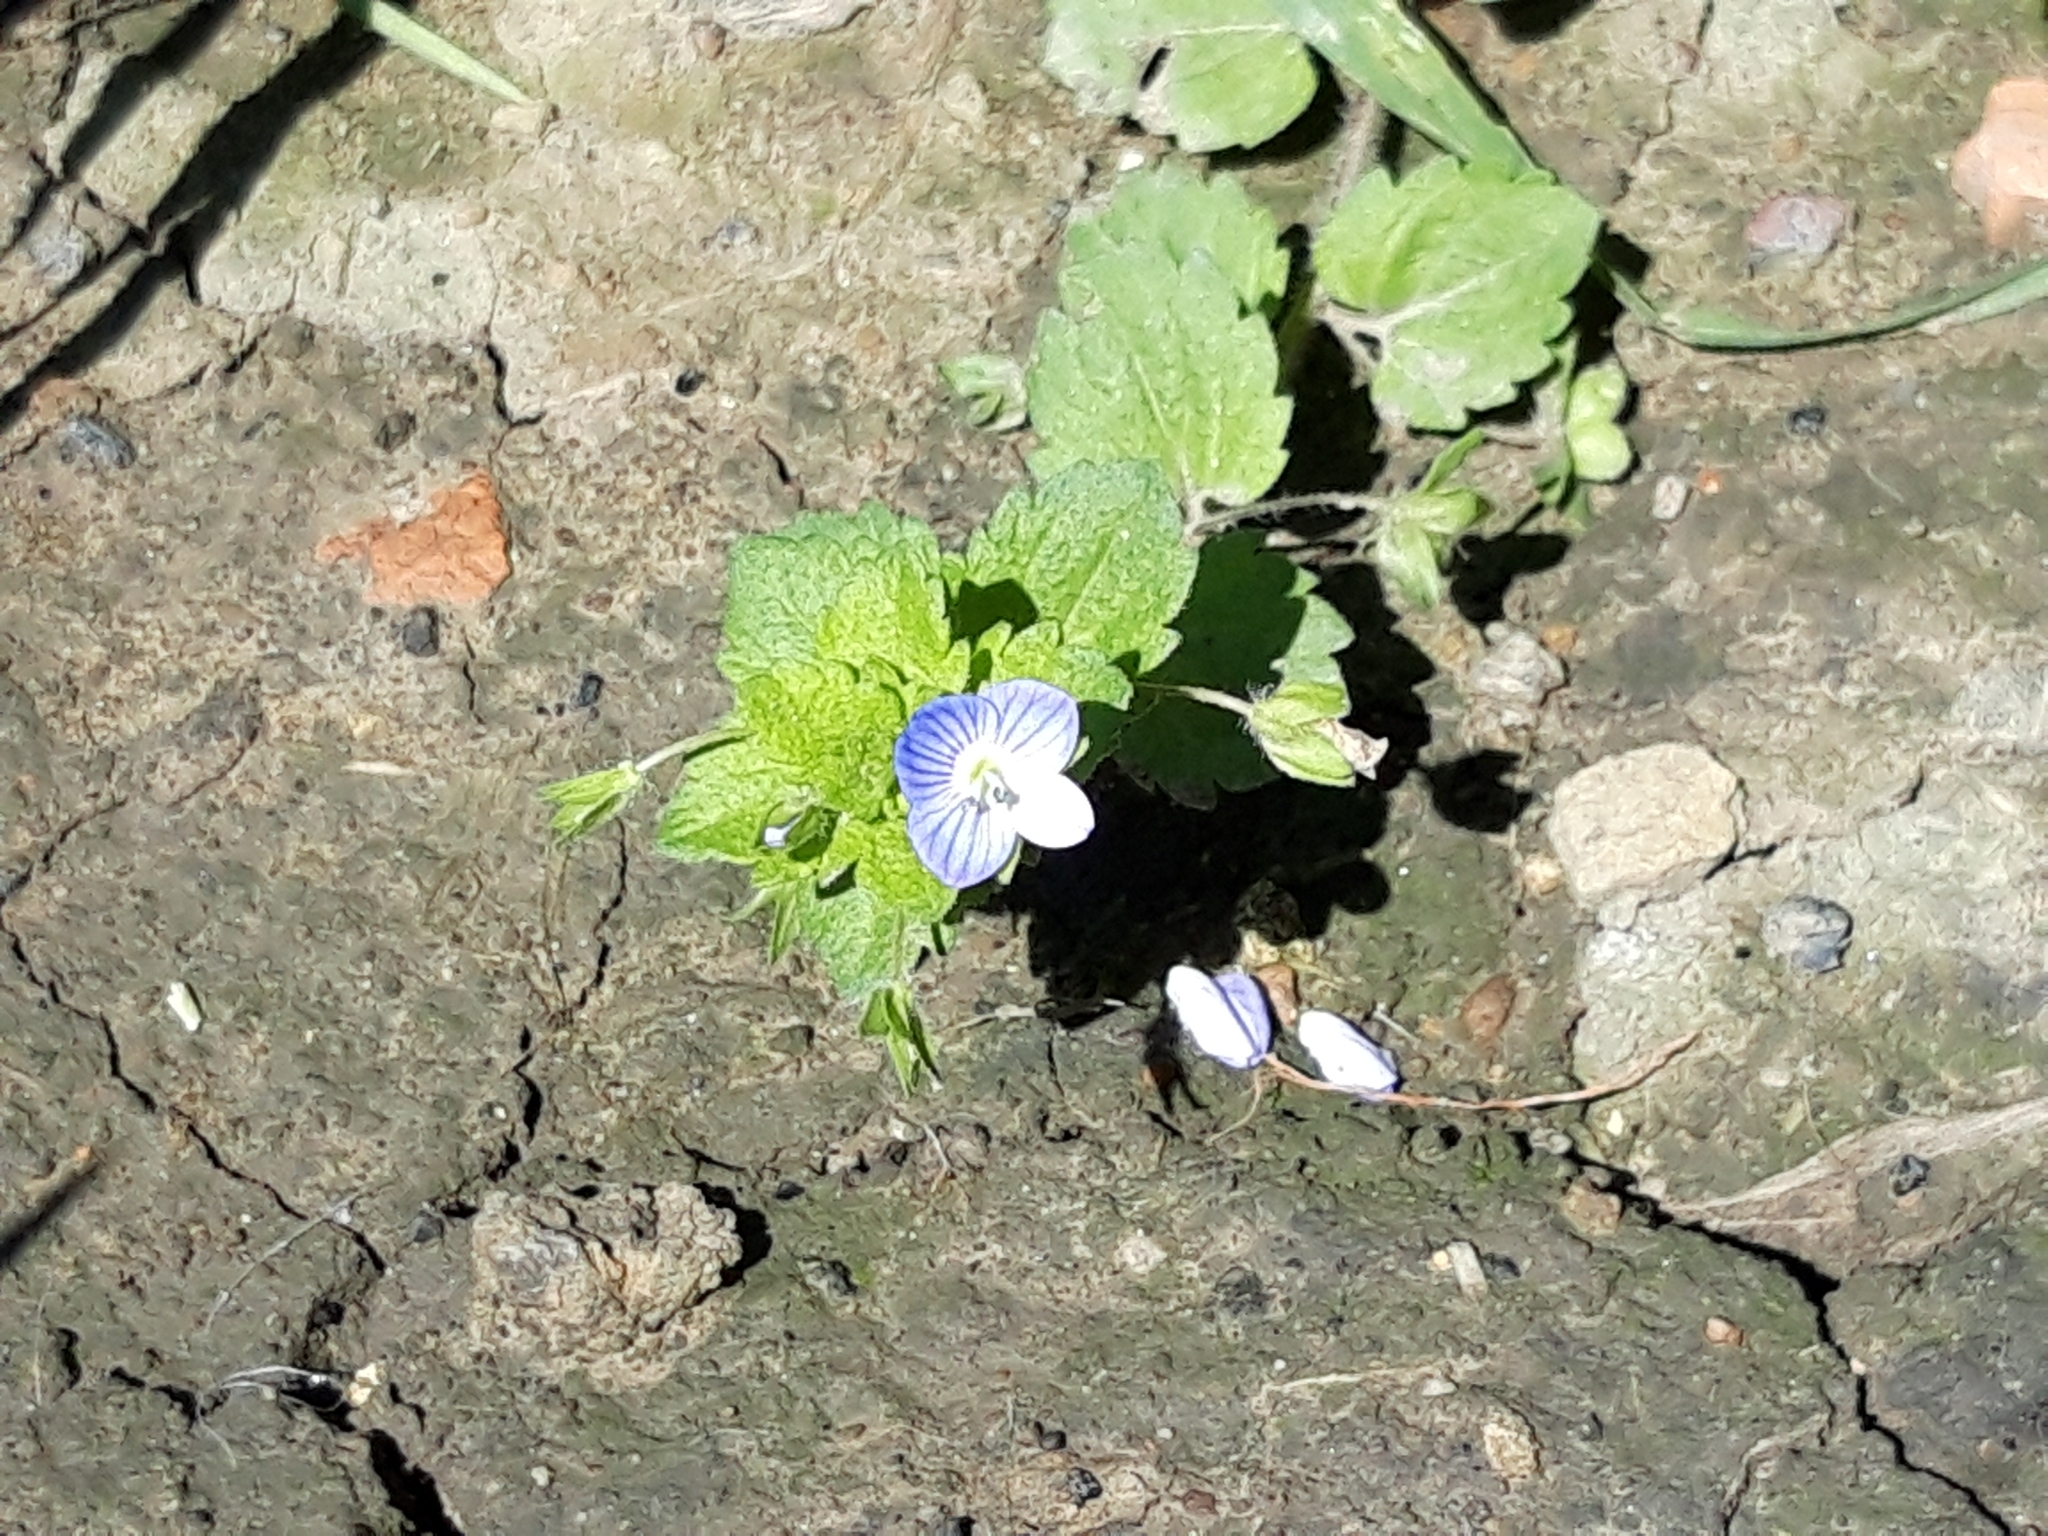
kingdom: Plantae
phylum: Tracheophyta
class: Magnoliopsida
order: Lamiales
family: Plantaginaceae
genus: Veronica
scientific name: Veronica persica
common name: Common field-speedwell
